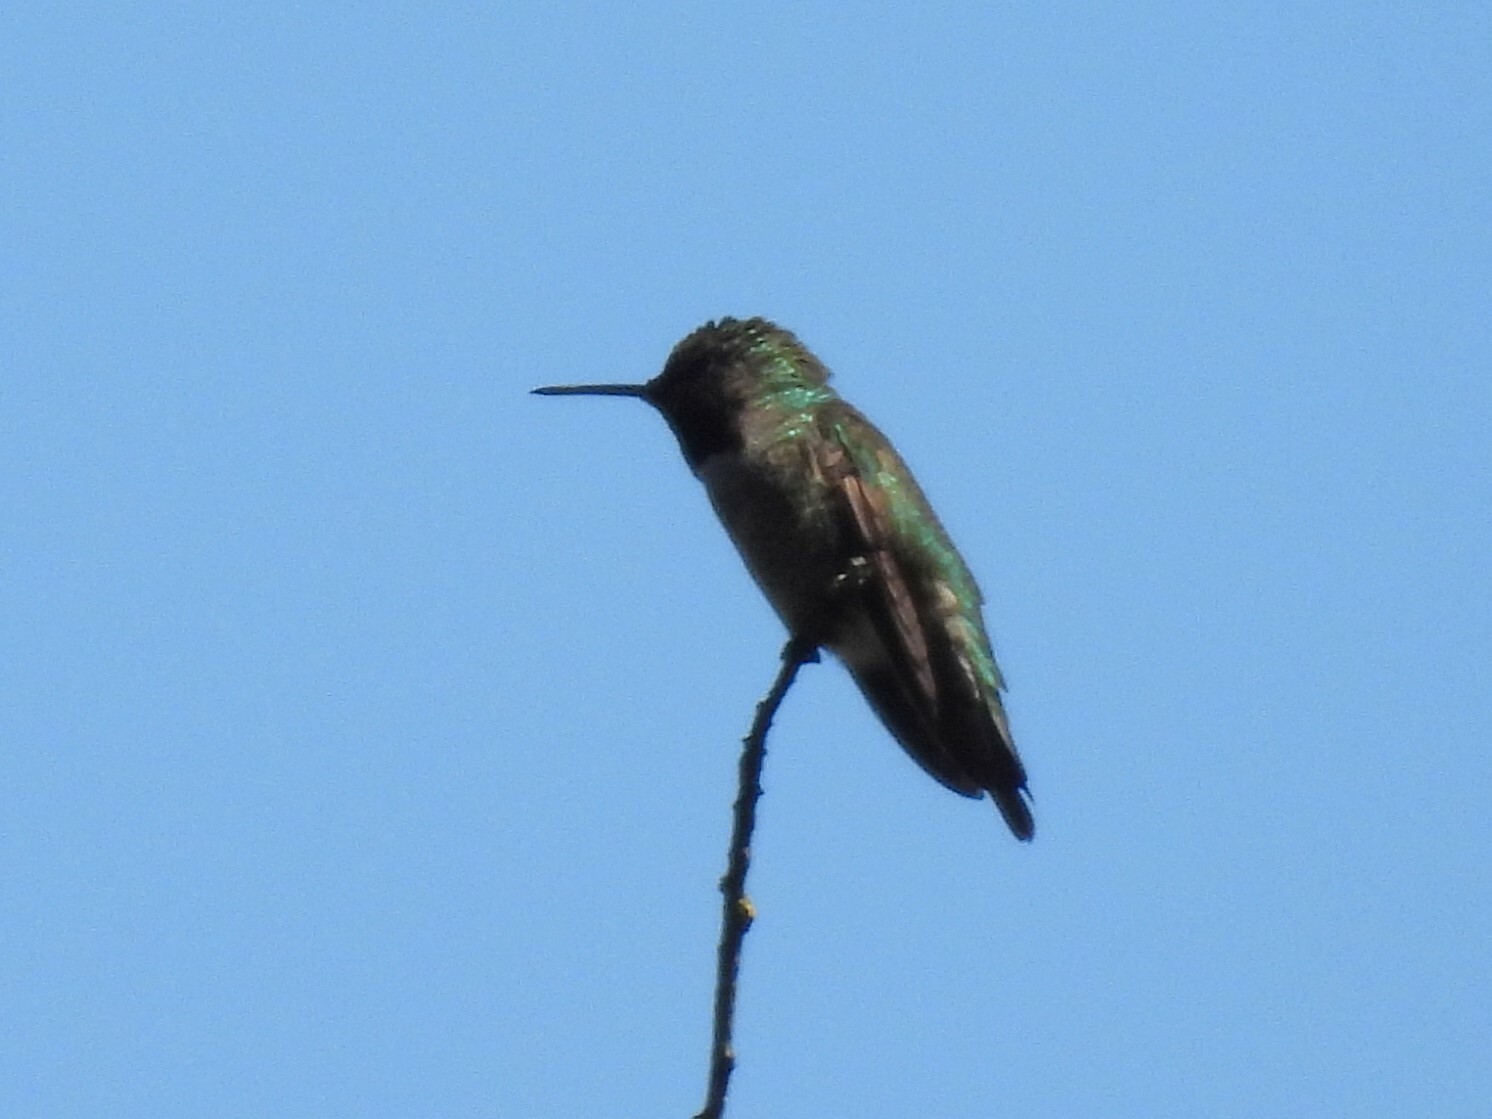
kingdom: Animalia
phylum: Chordata
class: Aves
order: Apodiformes
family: Trochilidae
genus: Calypte
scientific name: Calypte anna
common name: Anna's hummingbird
